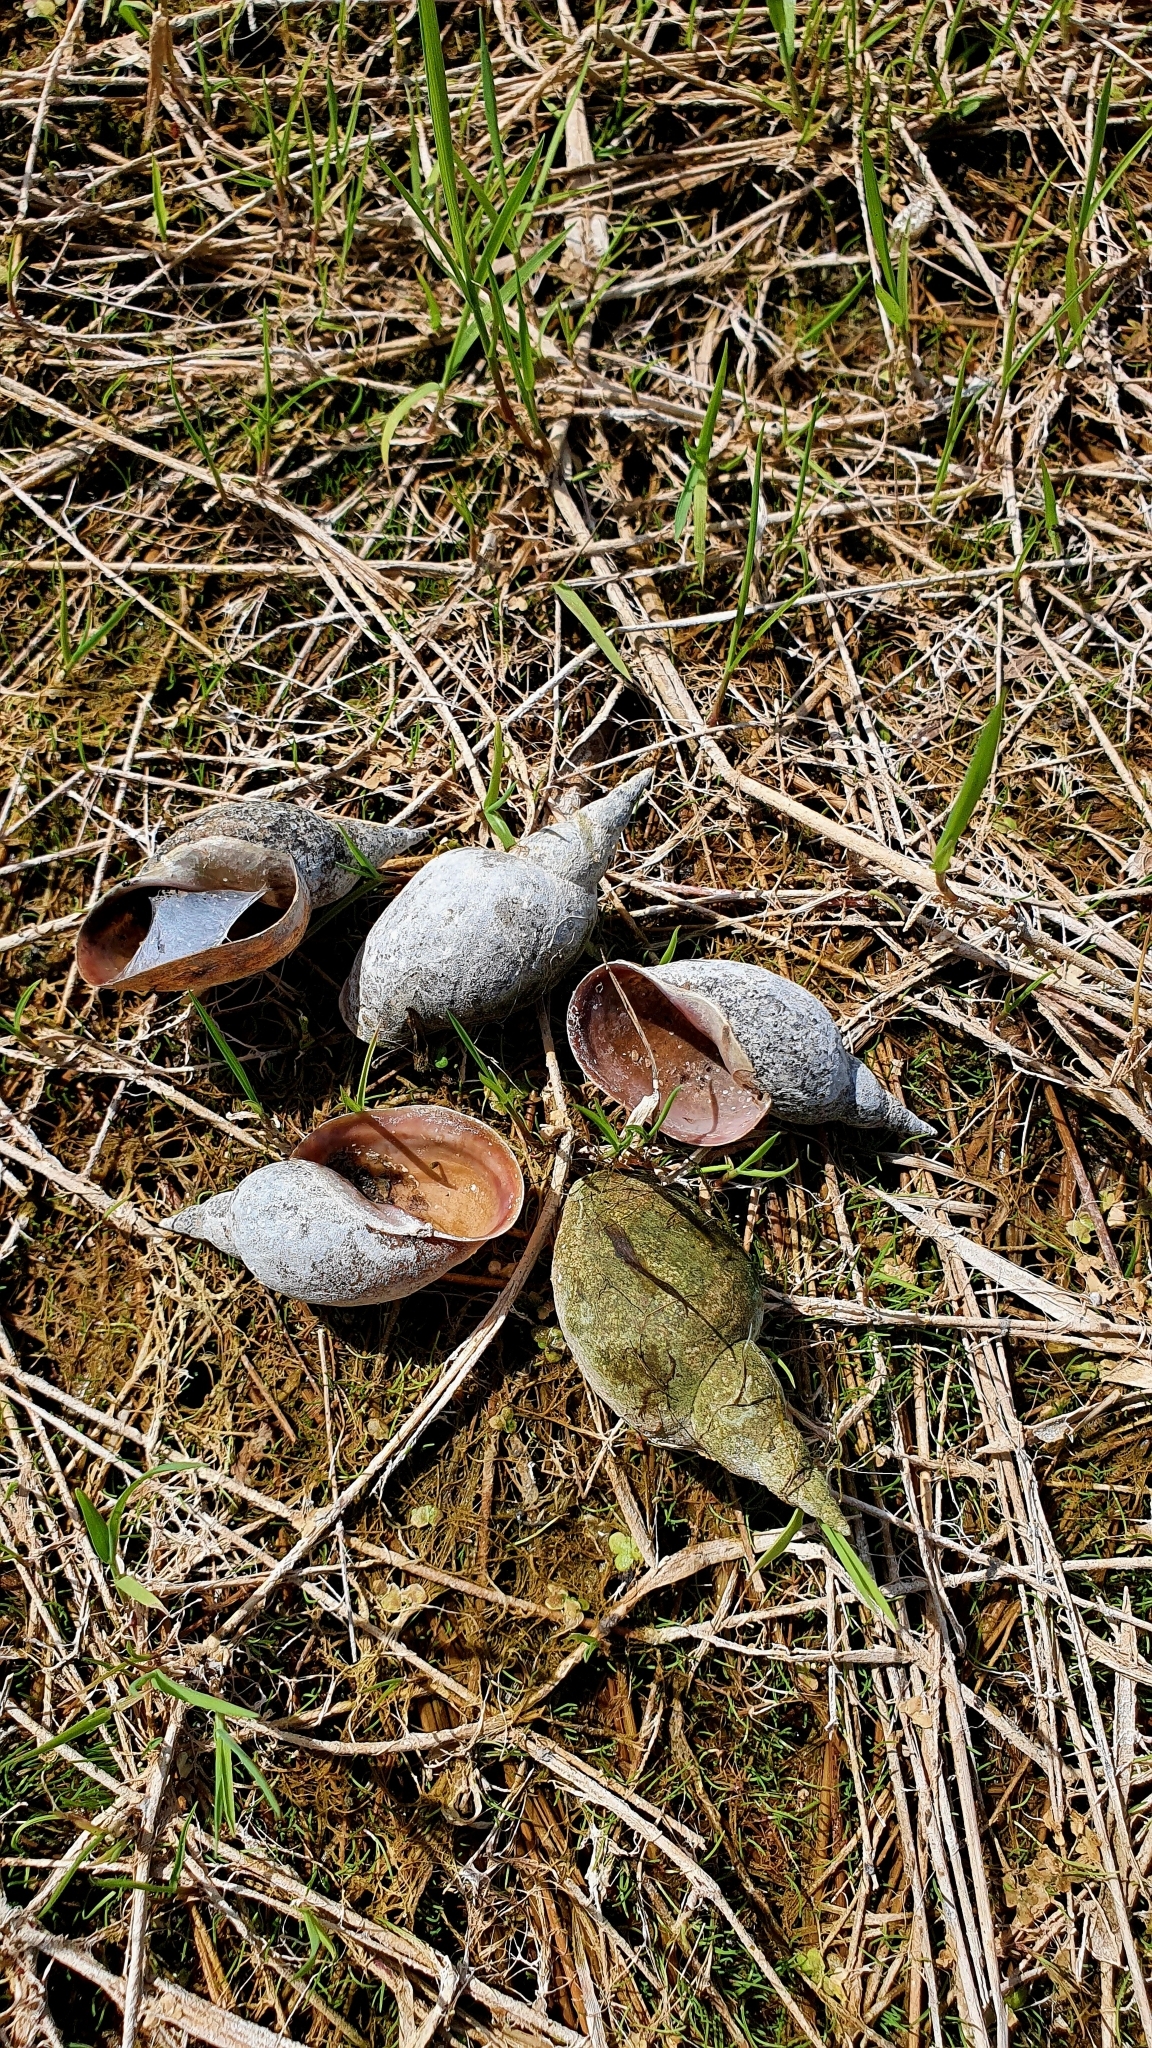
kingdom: Animalia
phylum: Mollusca
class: Gastropoda
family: Lymnaeidae
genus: Lymnaea
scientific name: Lymnaea stagnalis
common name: Great pond snail
